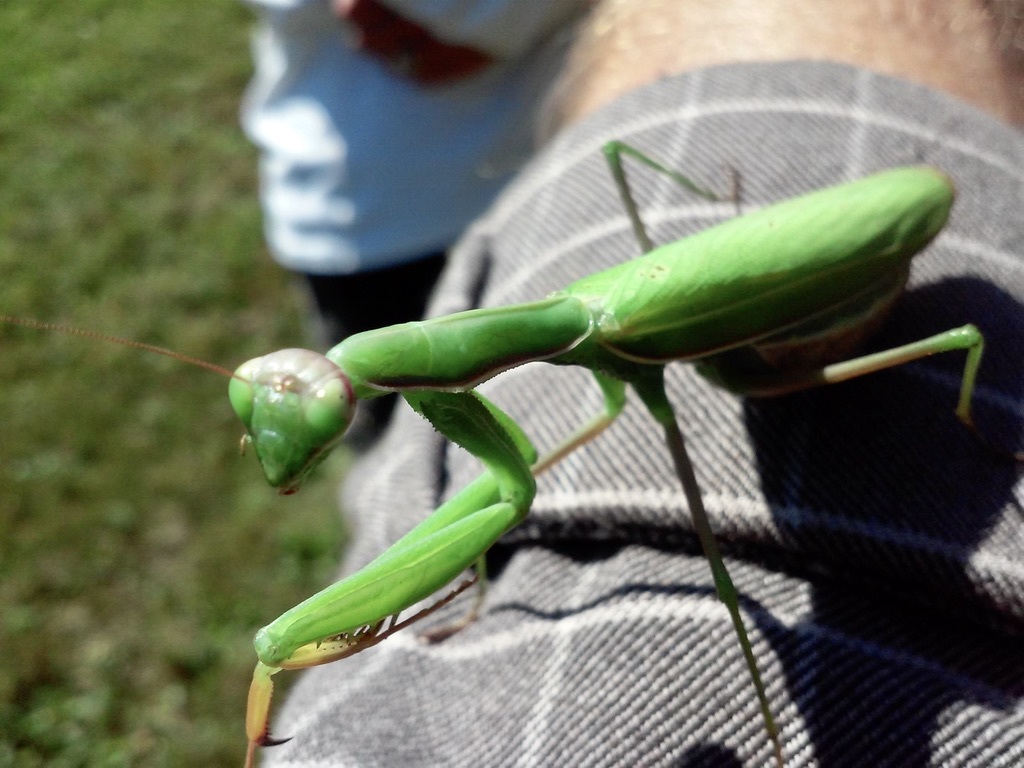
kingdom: Animalia
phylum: Arthropoda
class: Insecta
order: Mantodea
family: Mantidae
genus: Mantis
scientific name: Mantis religiosa
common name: Praying mantis
